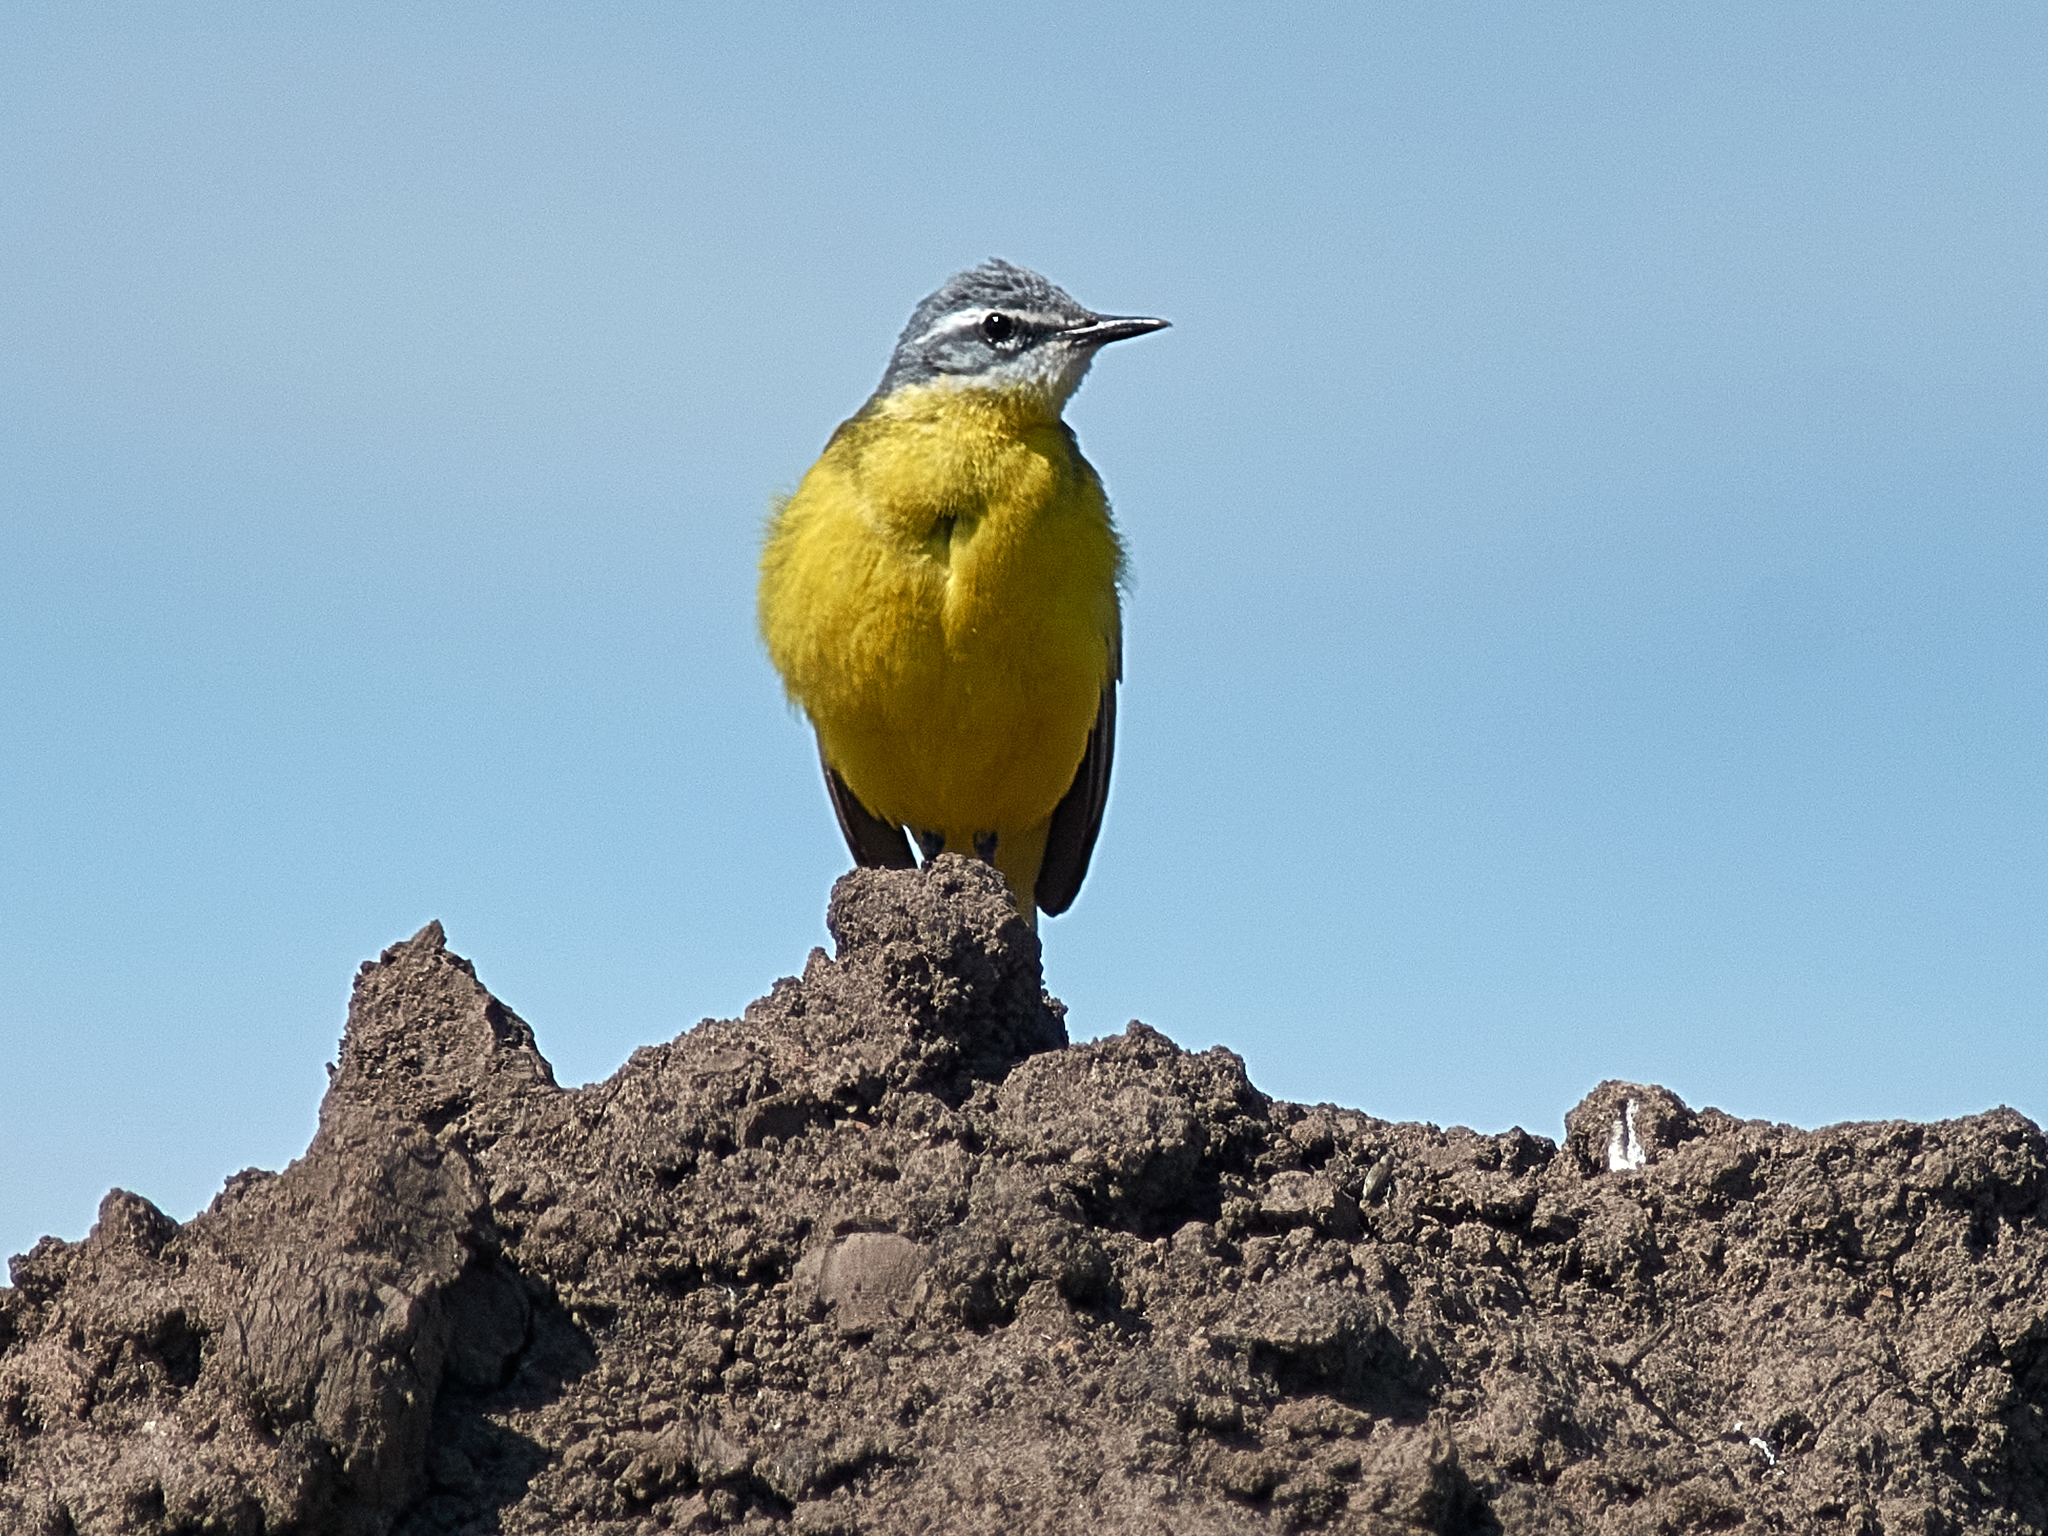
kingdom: Animalia
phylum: Chordata
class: Aves
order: Passeriformes
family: Motacillidae
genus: Motacilla
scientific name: Motacilla flava
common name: Western yellow wagtail
